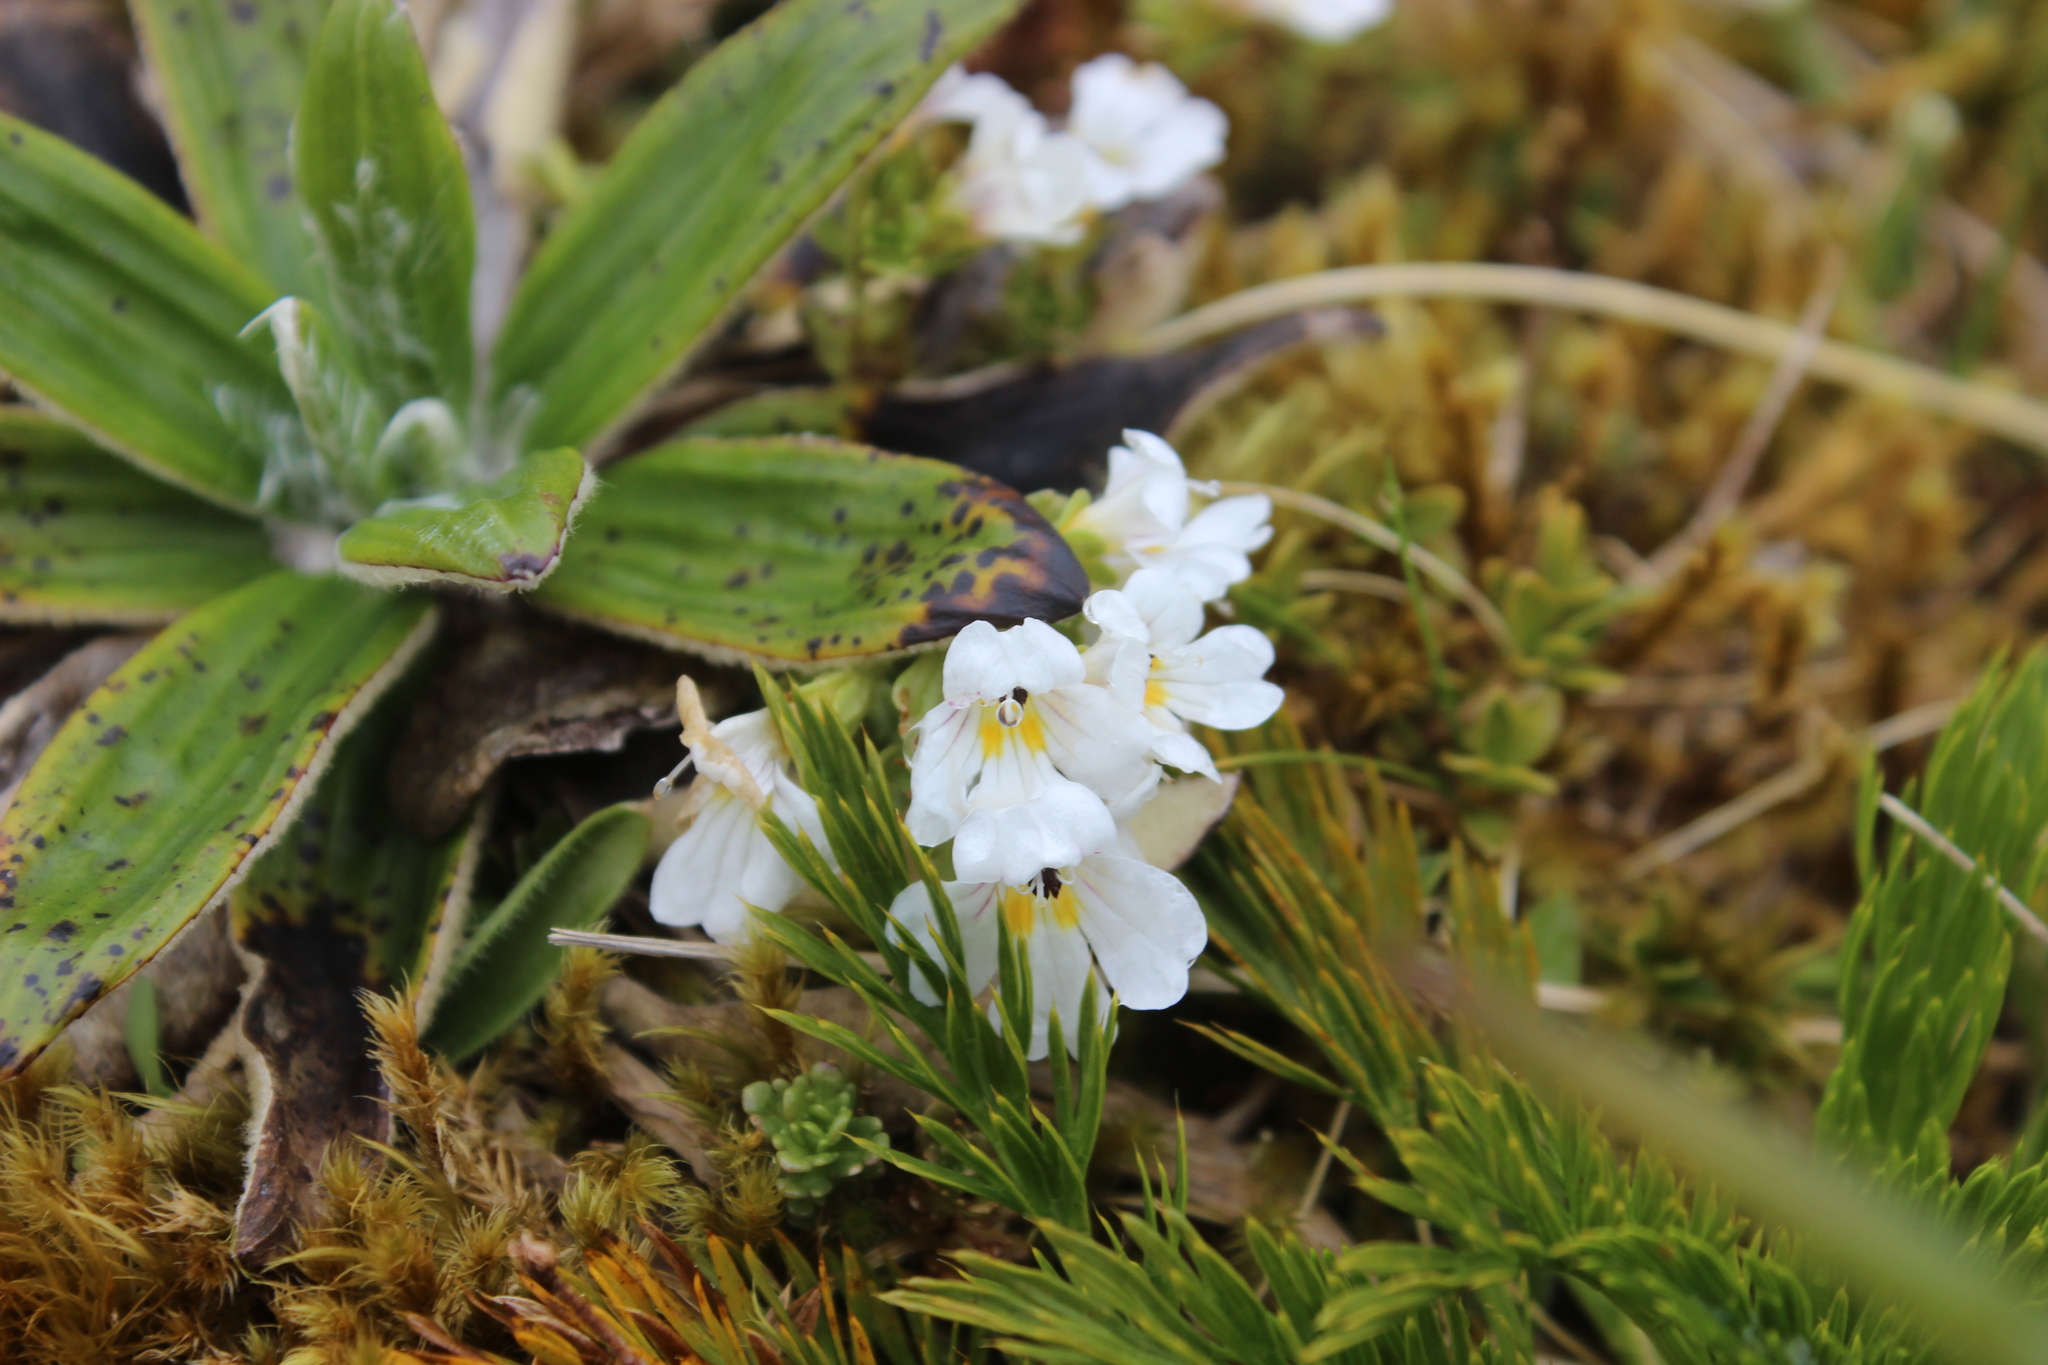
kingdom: Plantae
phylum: Tracheophyta
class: Magnoliopsida
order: Lamiales
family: Orobanchaceae
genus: Euphrasia
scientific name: Euphrasia drucei
